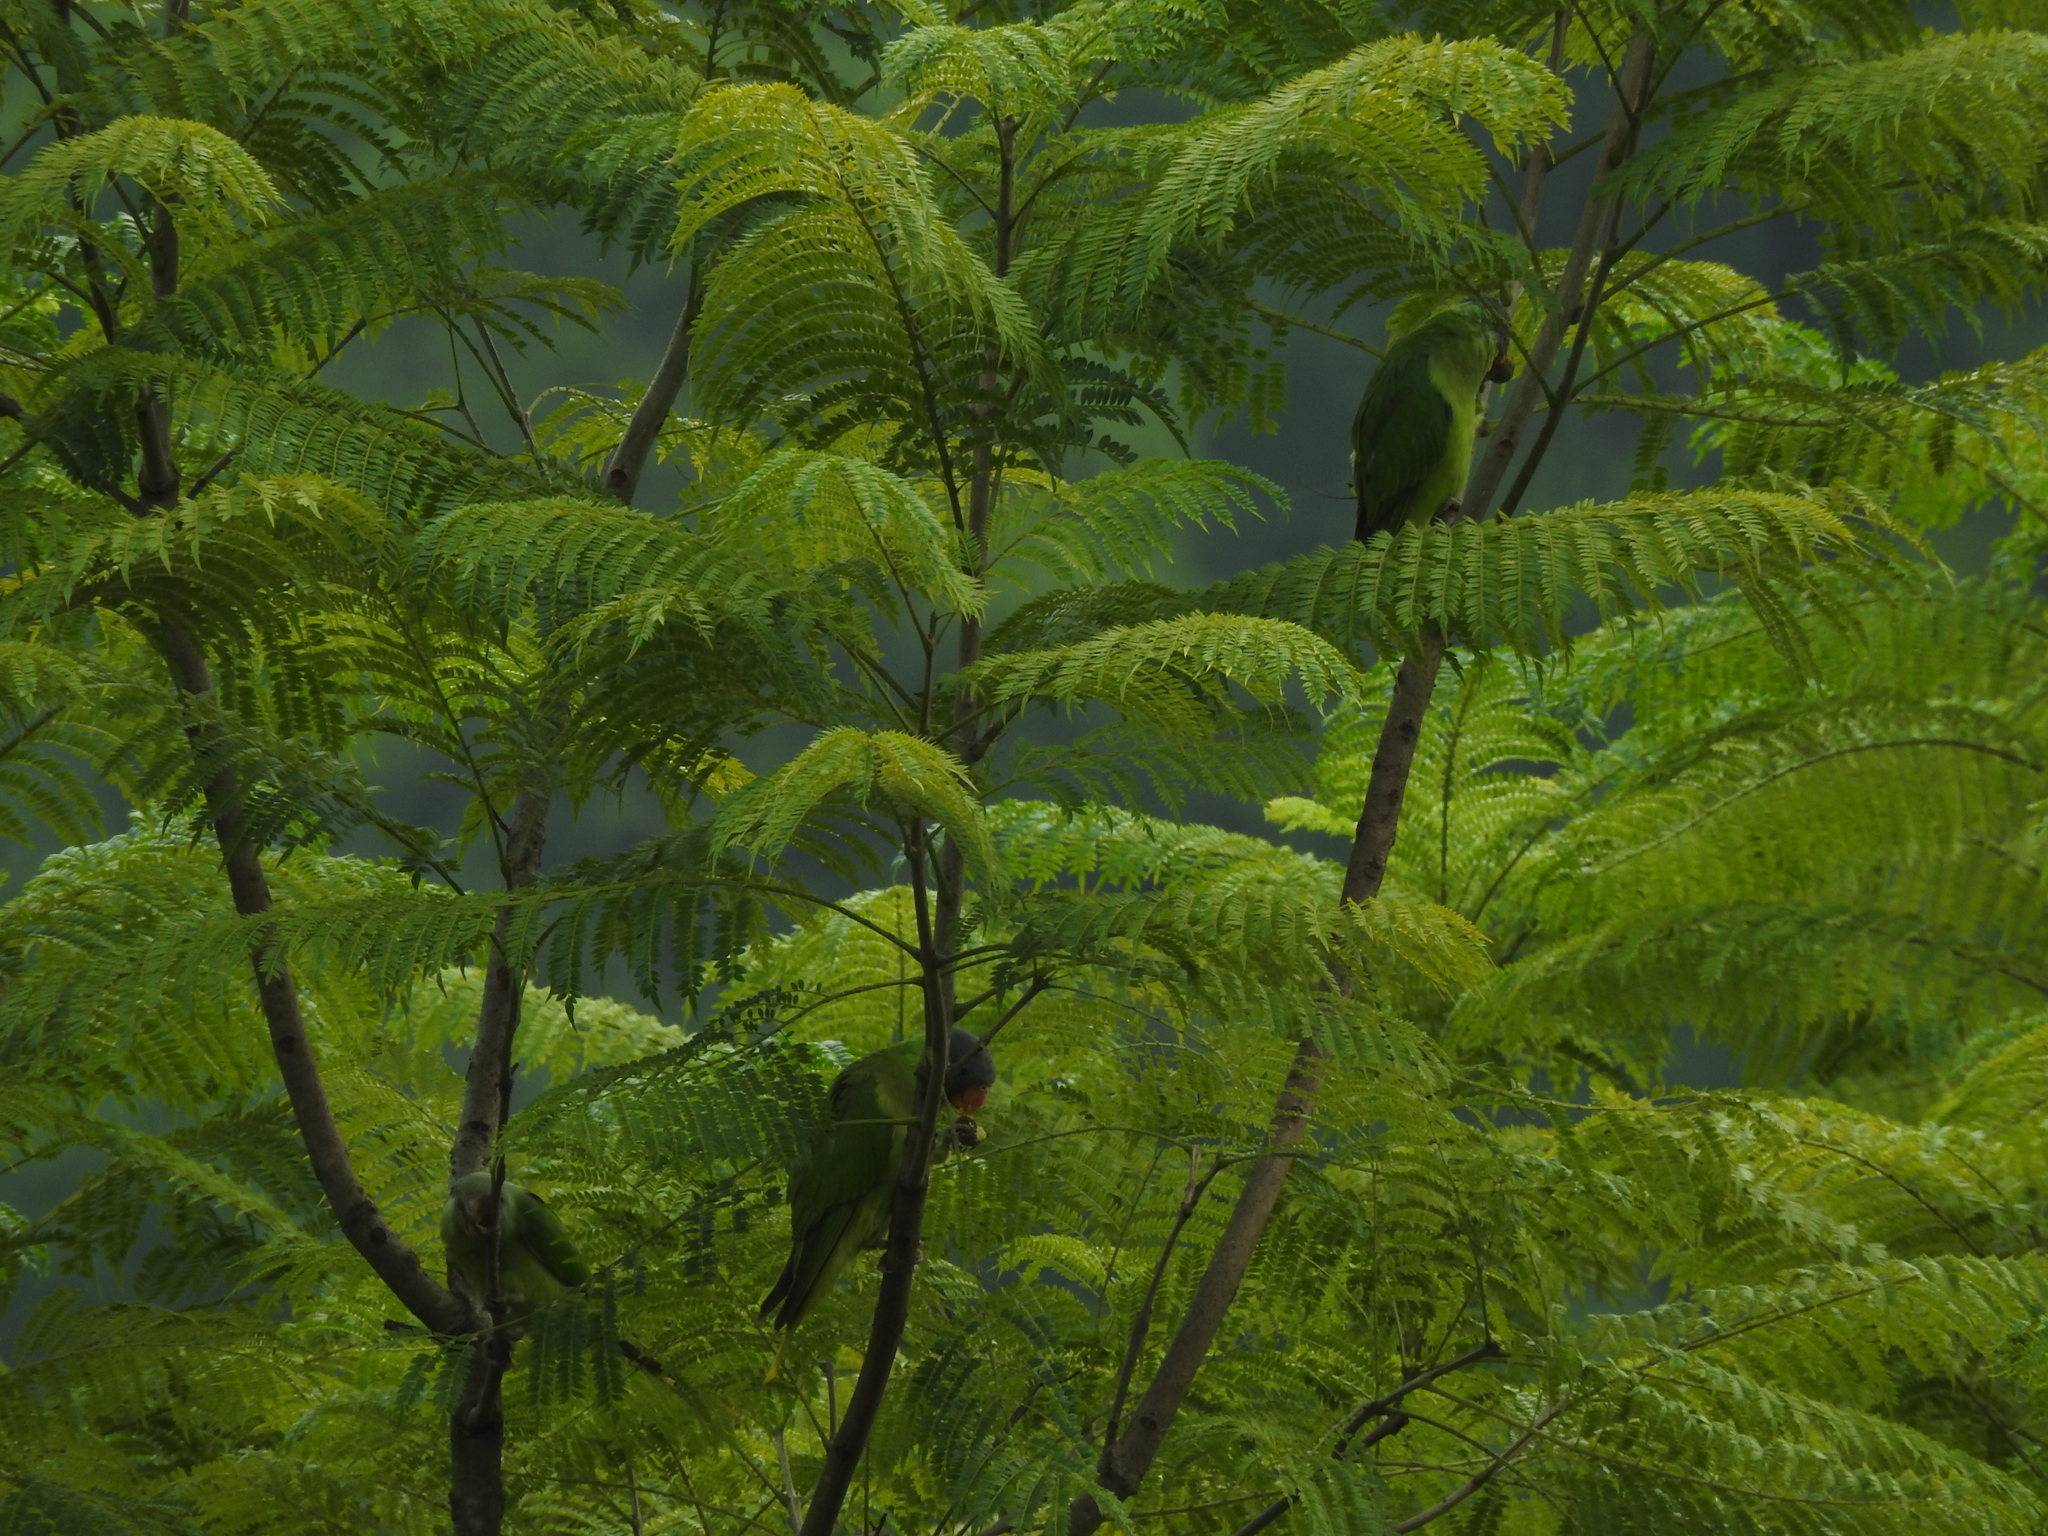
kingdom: Animalia
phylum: Chordata
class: Aves
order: Psittaciformes
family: Psittacidae
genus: Psittacula
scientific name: Psittacula cyanocephala
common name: Plum-headed parakeet
